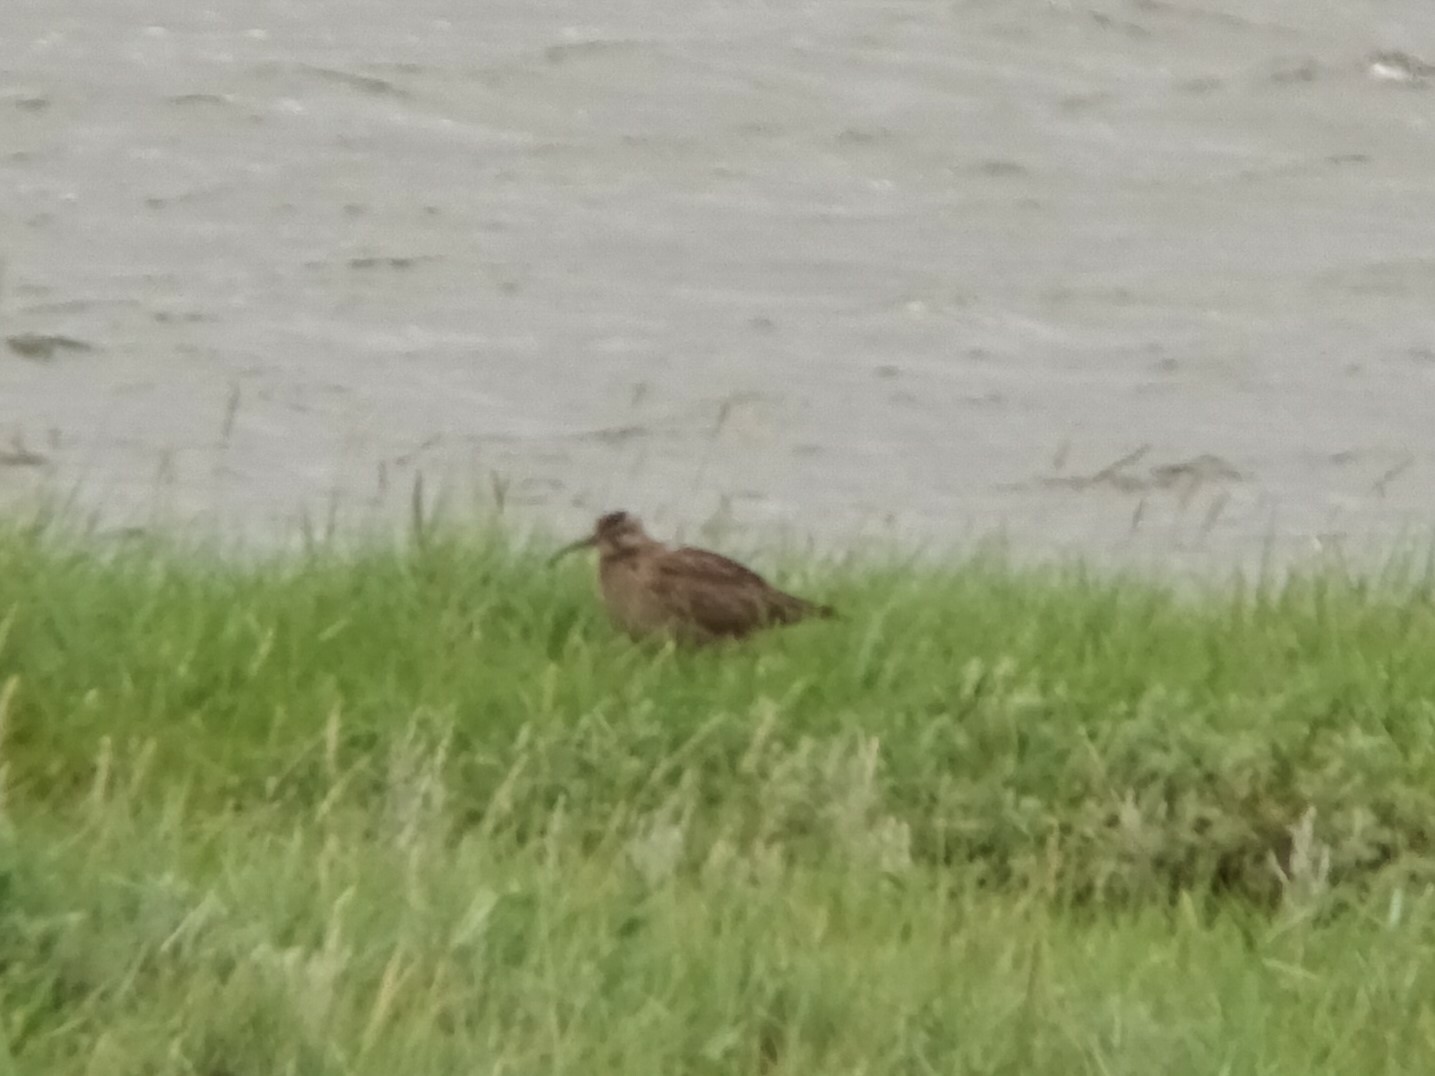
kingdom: Animalia
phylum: Chordata
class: Aves
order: Charadriiformes
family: Scolopacidae
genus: Numenius
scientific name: Numenius phaeopus
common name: Whimbrel
